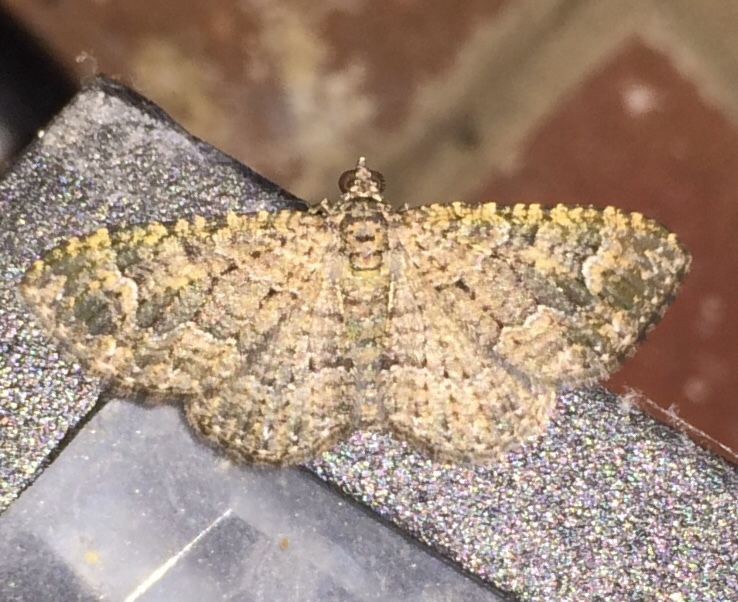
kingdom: Animalia
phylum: Arthropoda
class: Insecta
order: Lepidoptera
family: Geometridae
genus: Disclisioprocta
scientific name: Disclisioprocta stellata
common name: Somber carpet
